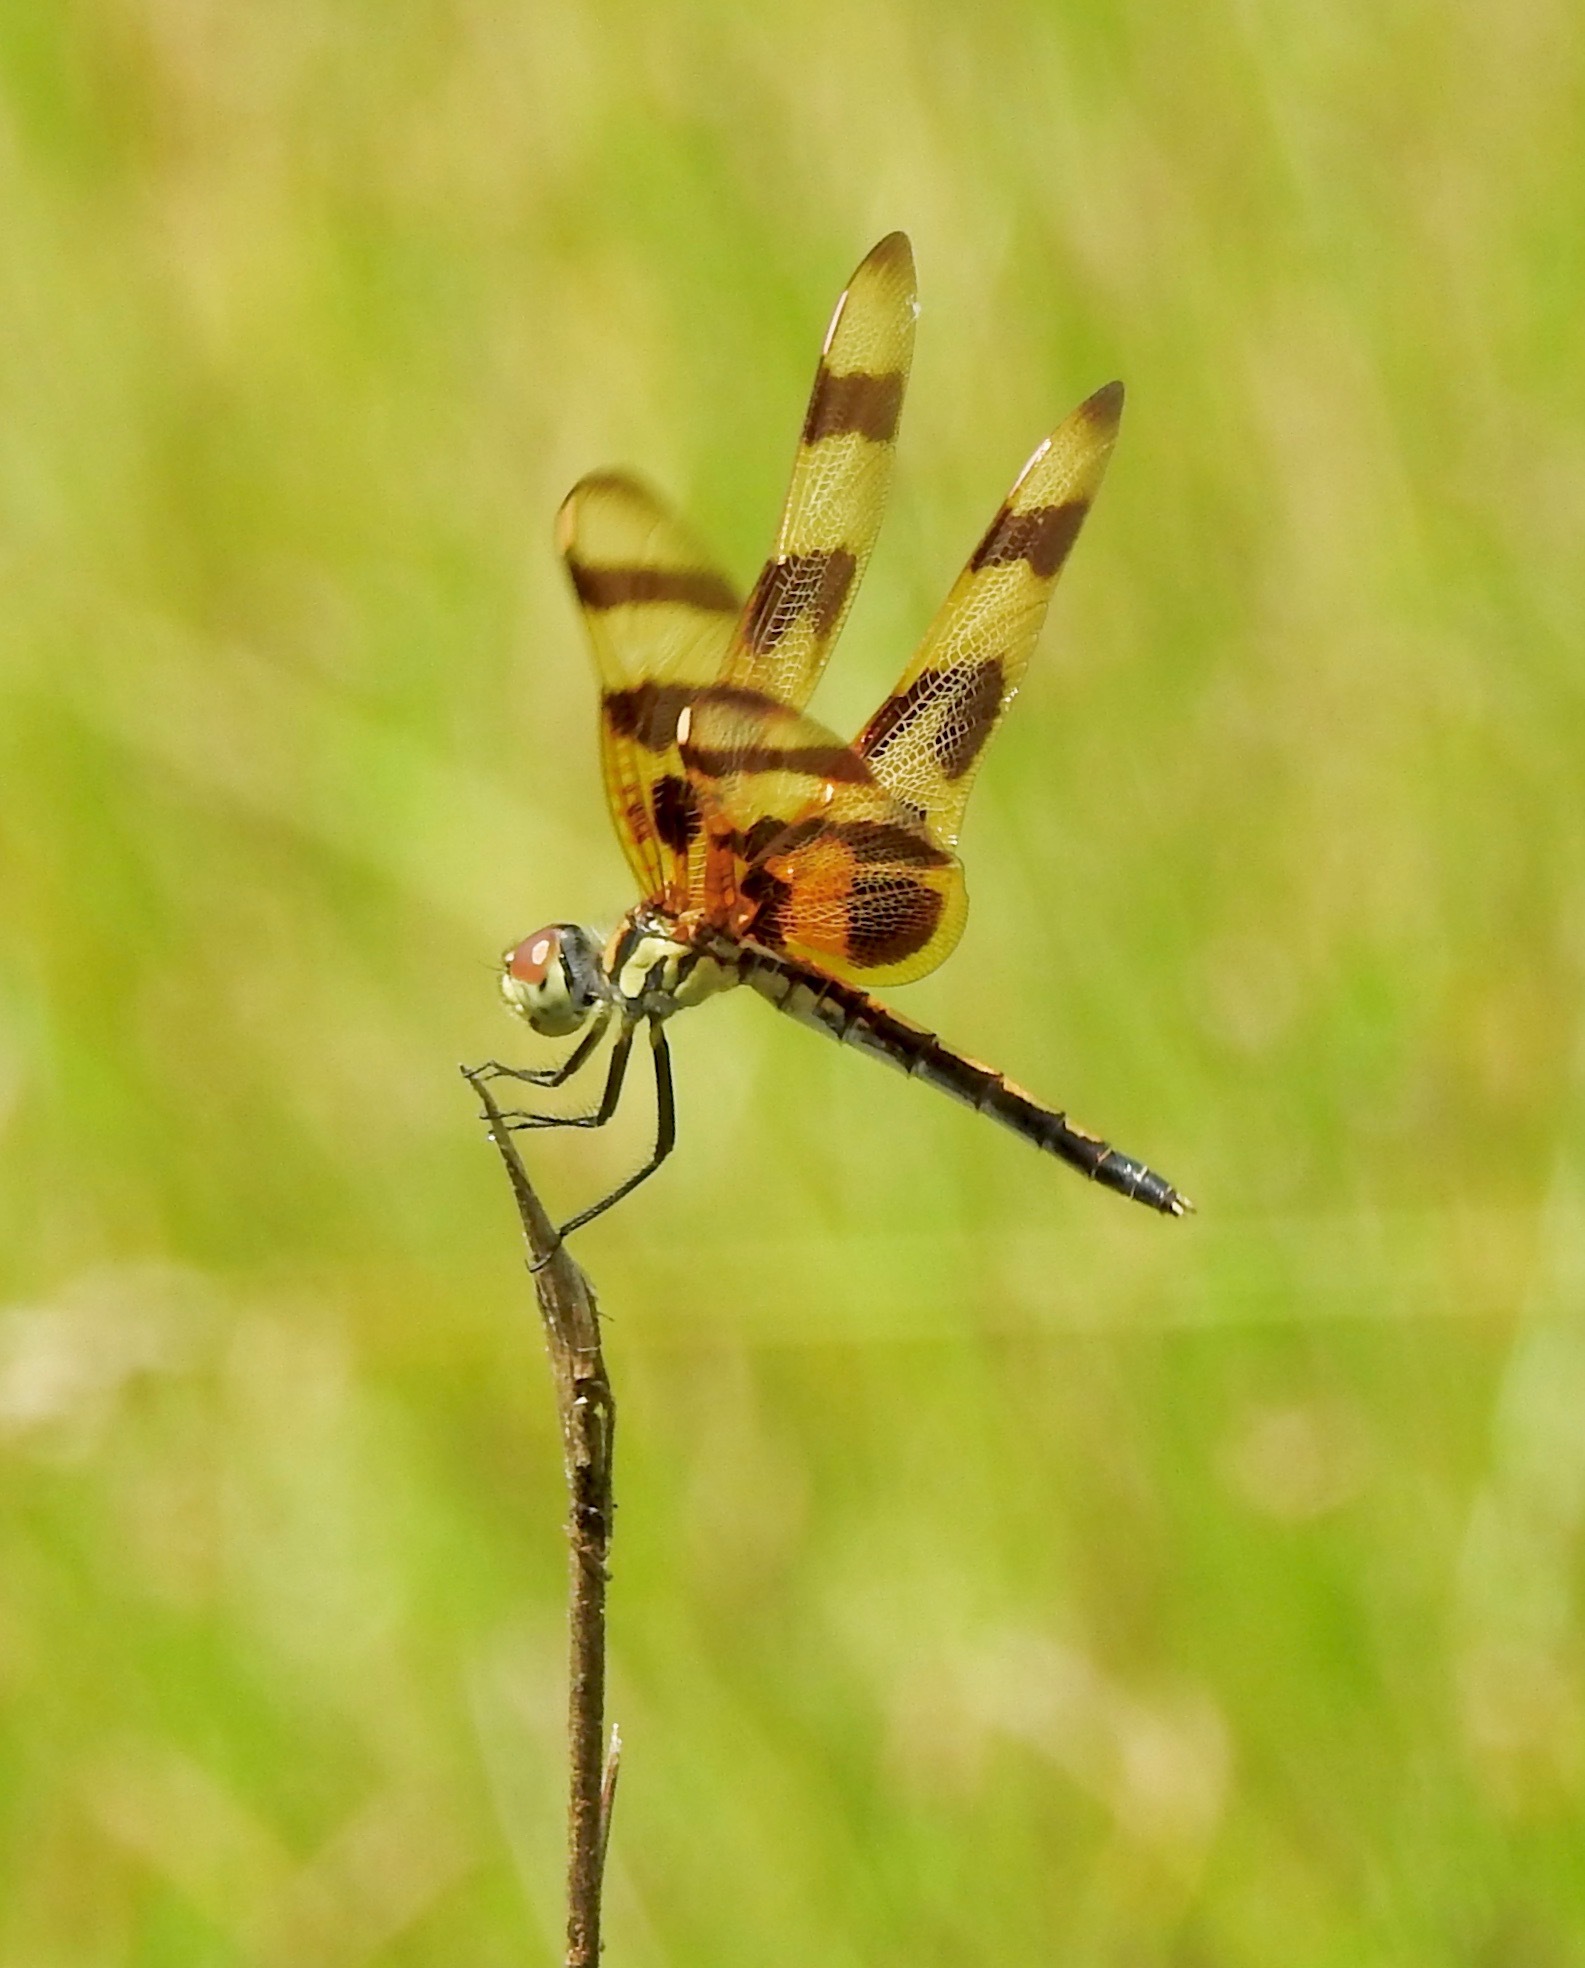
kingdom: Animalia
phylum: Arthropoda
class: Insecta
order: Odonata
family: Libellulidae
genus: Celithemis
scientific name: Celithemis eponina
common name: Halloween pennant
